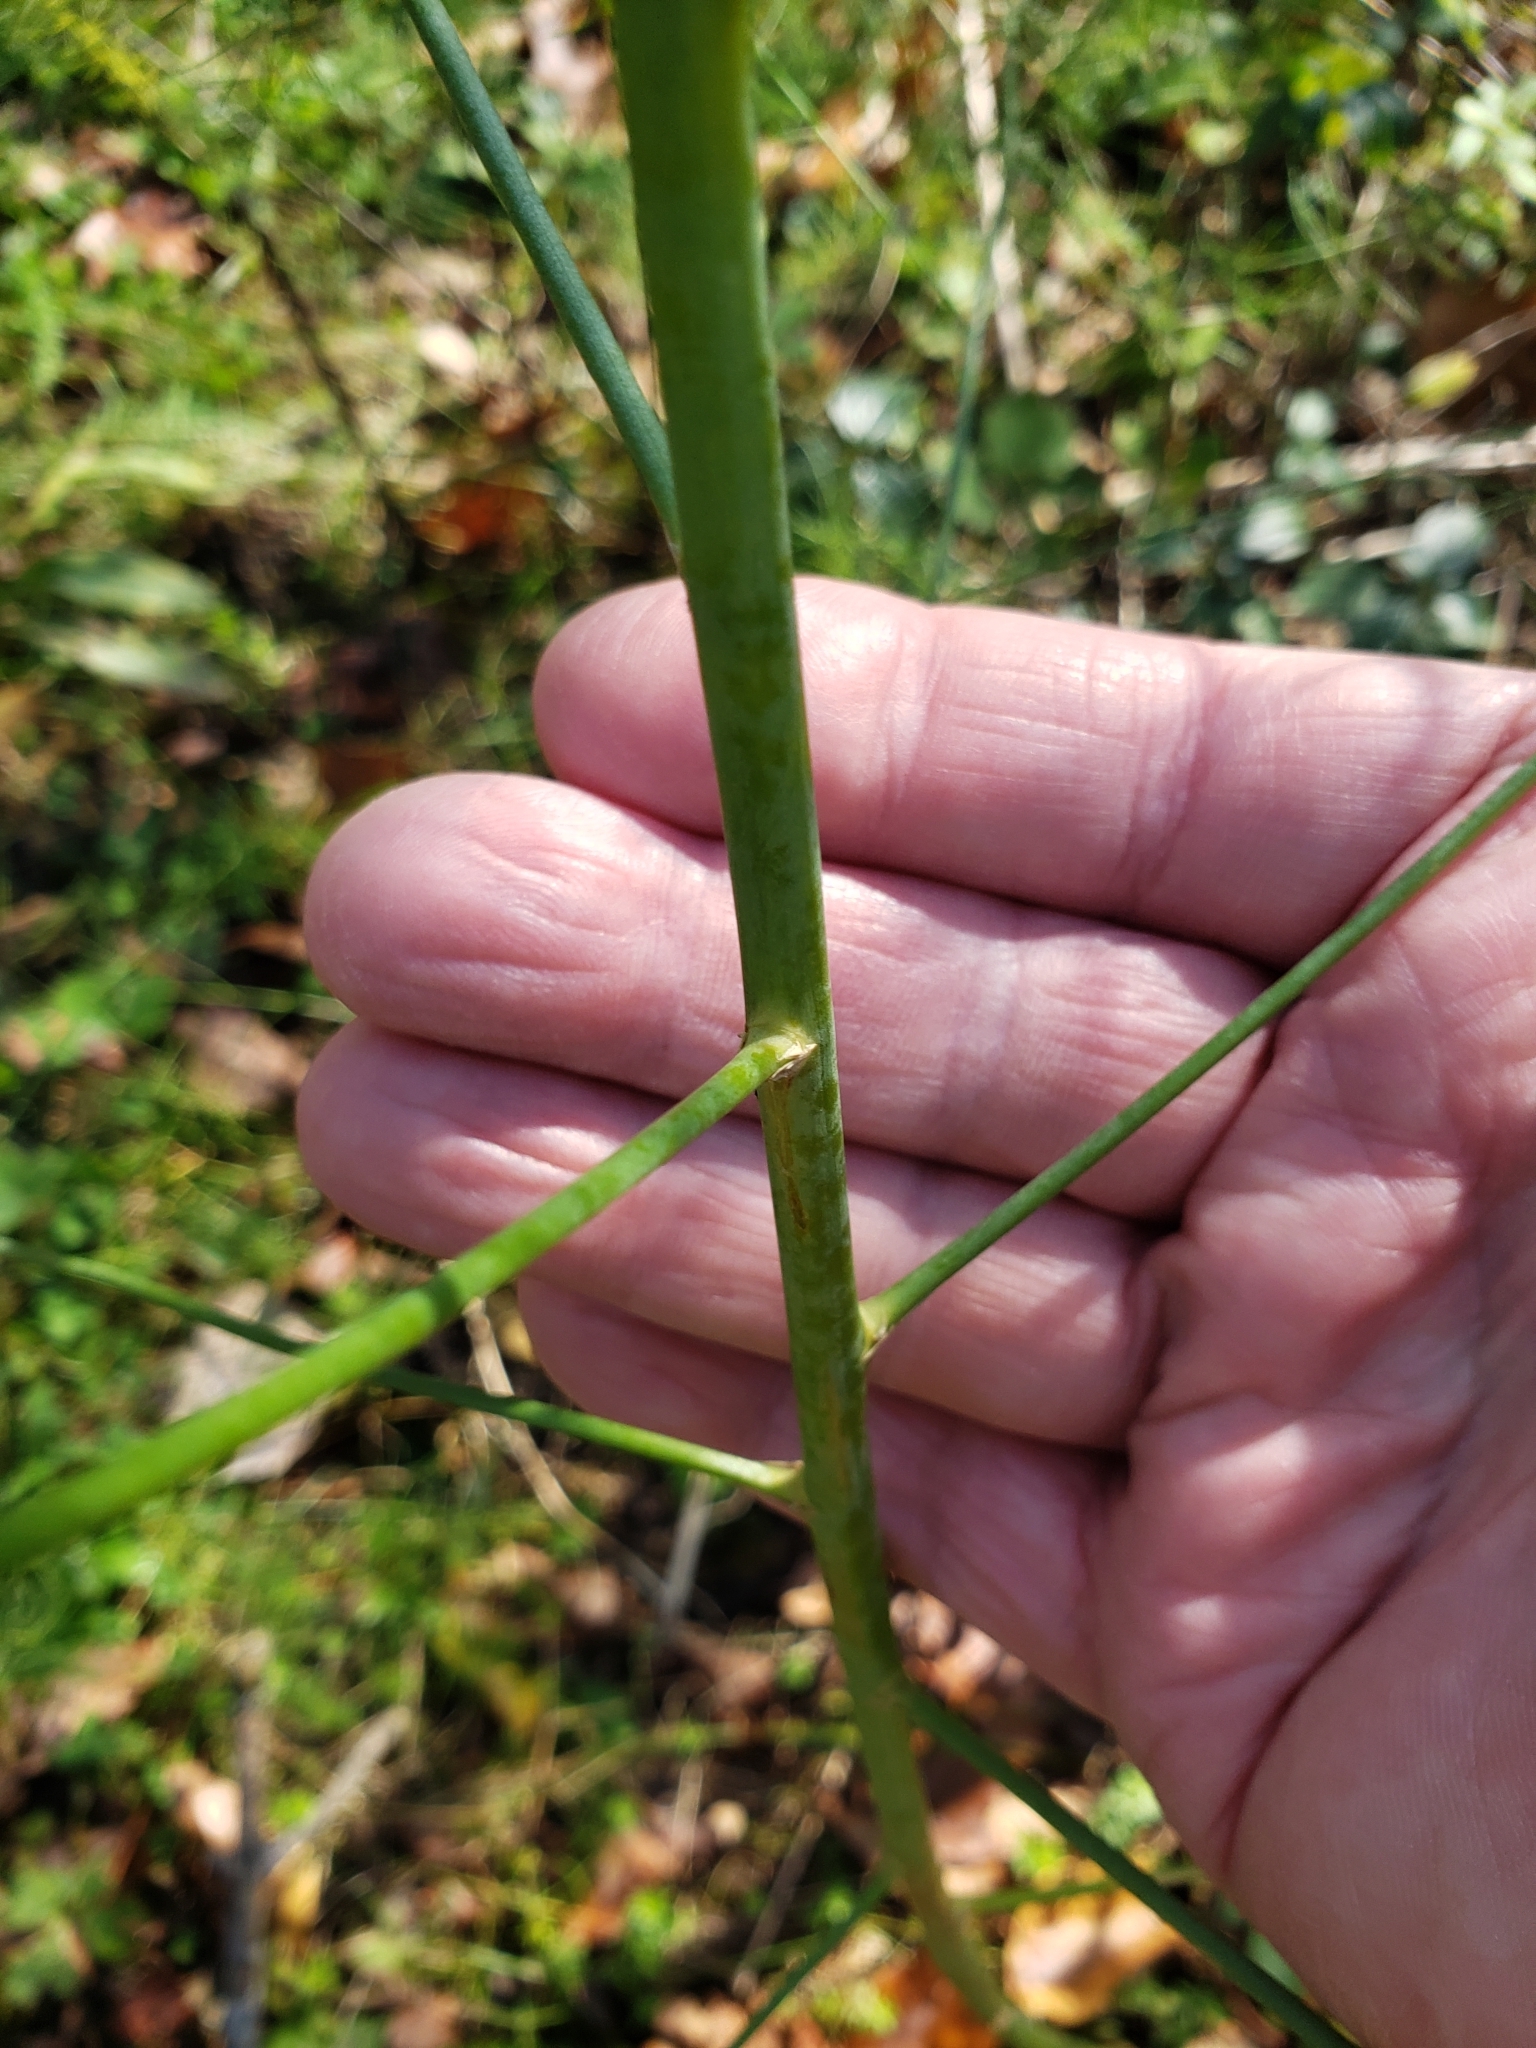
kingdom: Plantae
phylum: Tracheophyta
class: Liliopsida
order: Asparagales
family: Asparagaceae
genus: Asparagus
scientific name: Asparagus officinalis
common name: Garden asparagus
